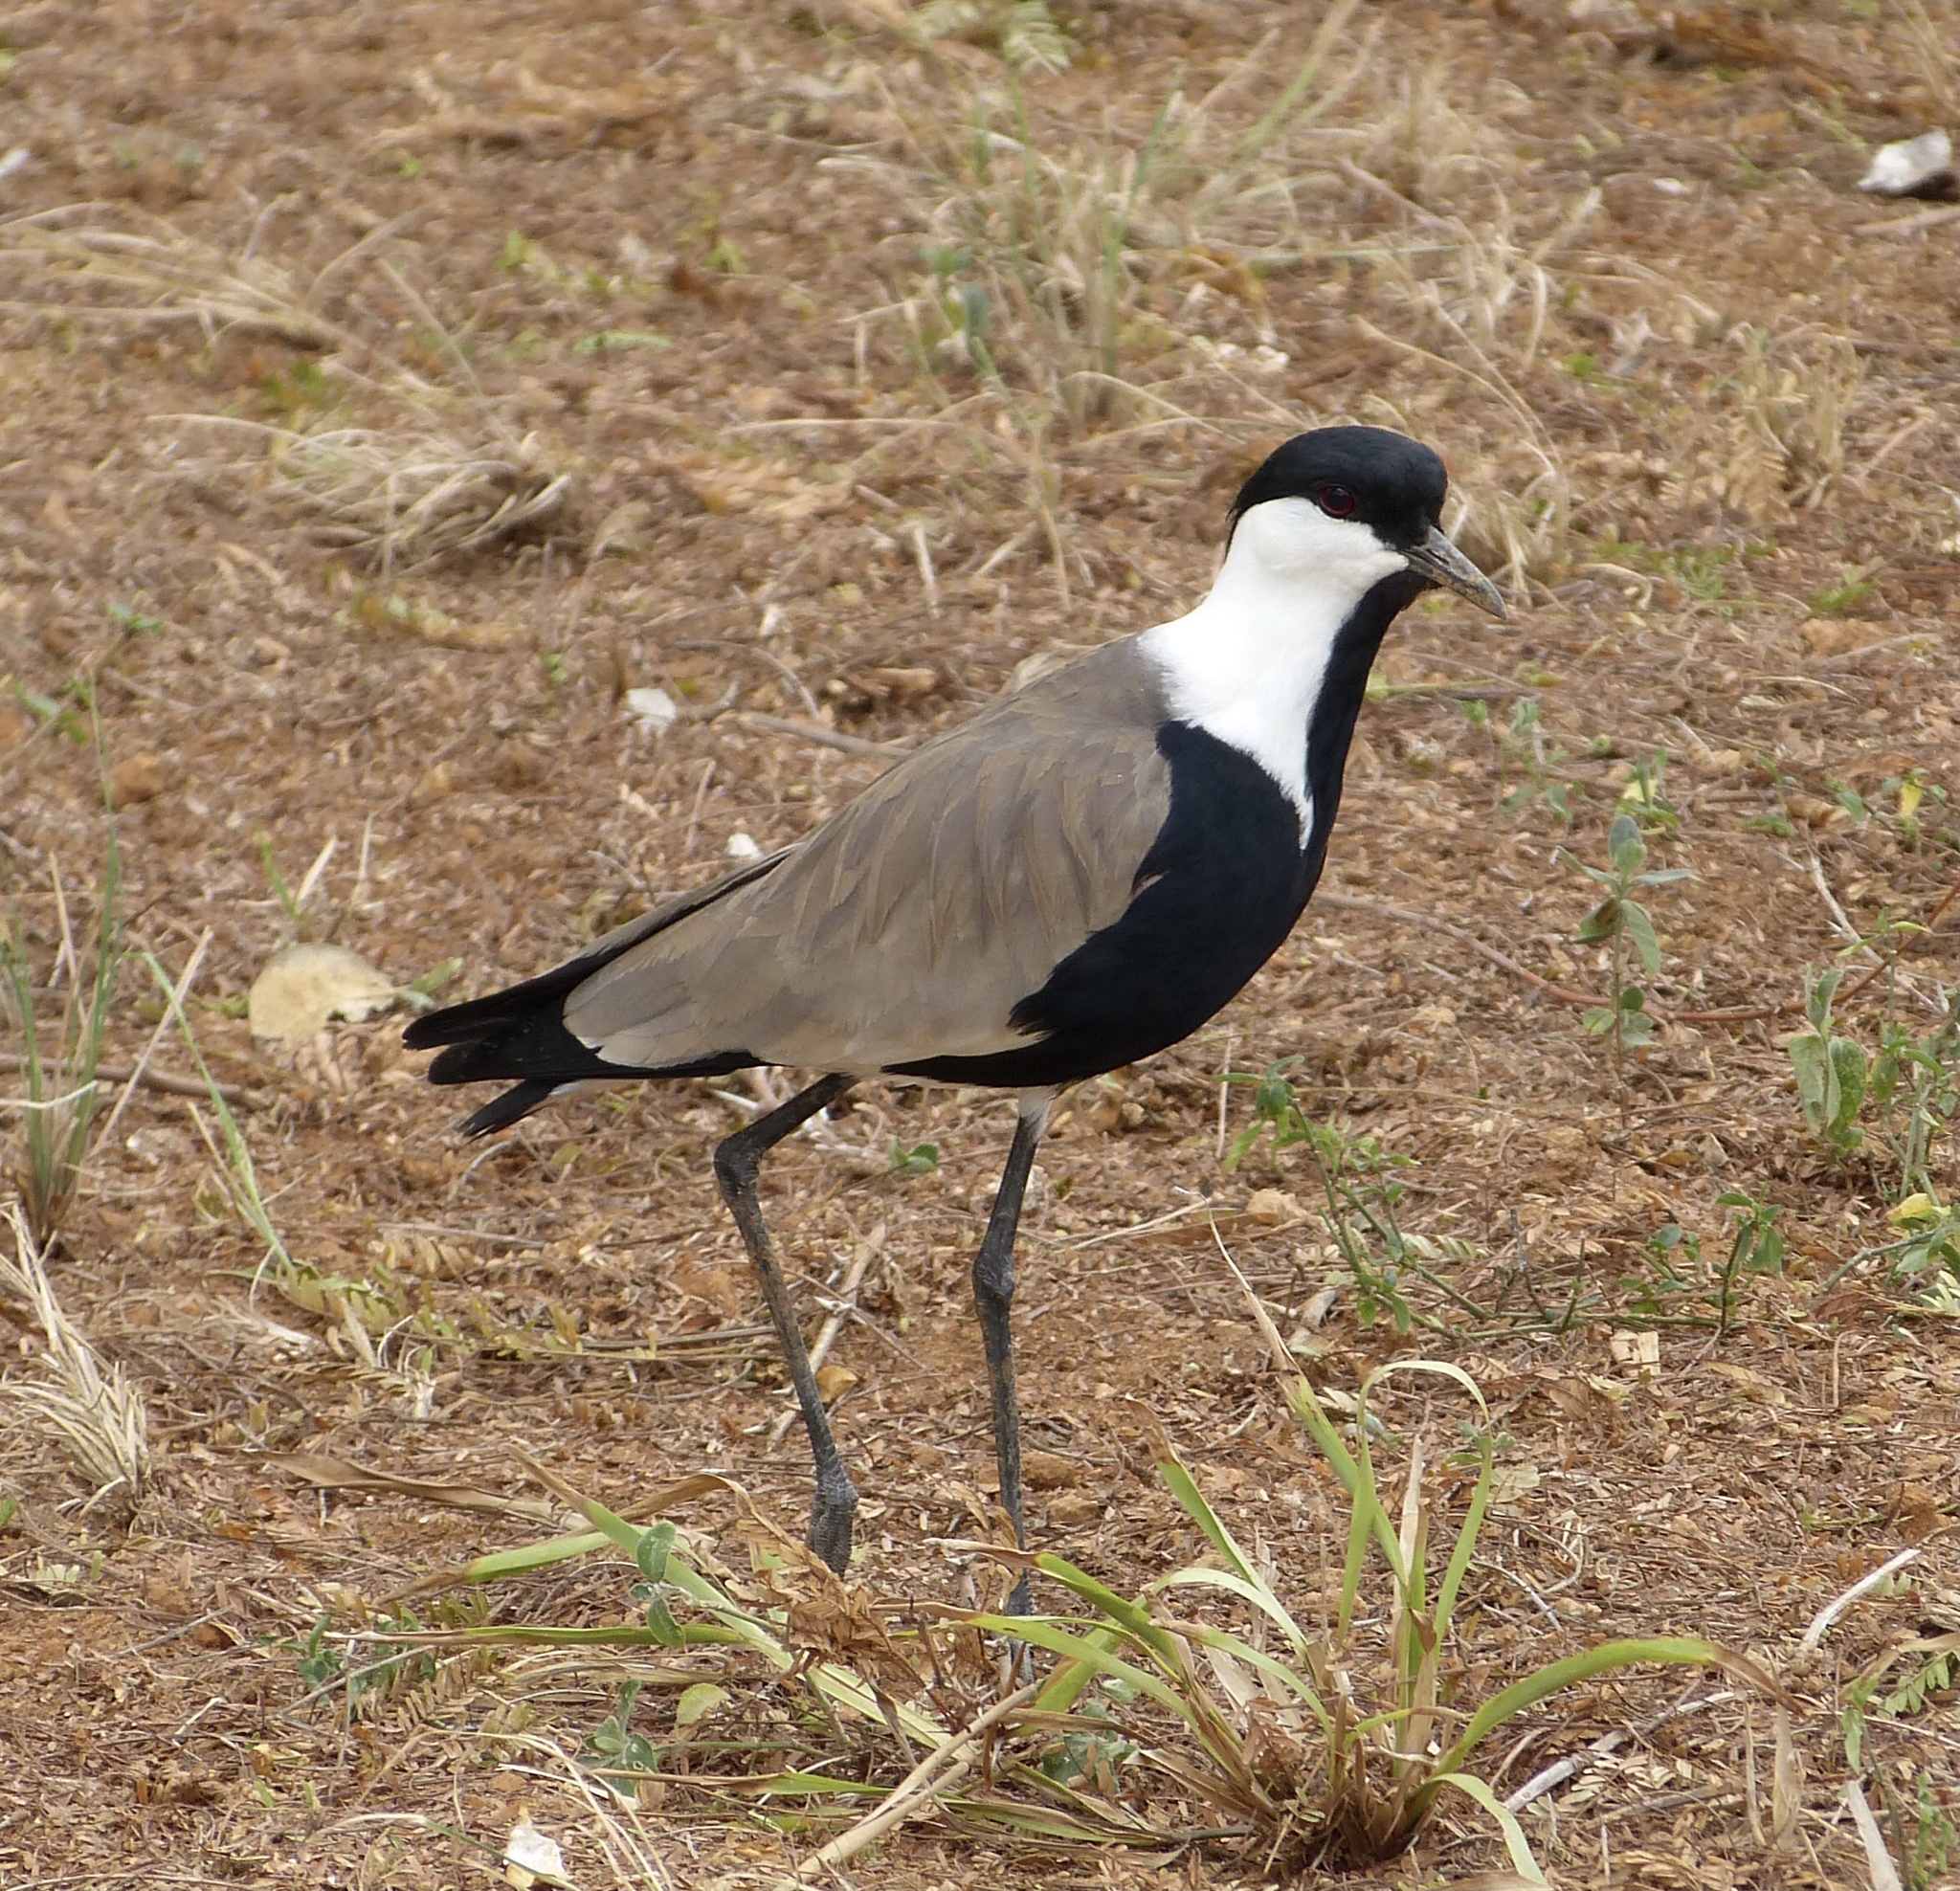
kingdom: Animalia
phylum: Chordata
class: Aves
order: Charadriiformes
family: Charadriidae
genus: Vanellus
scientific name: Vanellus spinosus
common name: Spur-winged lapwing
